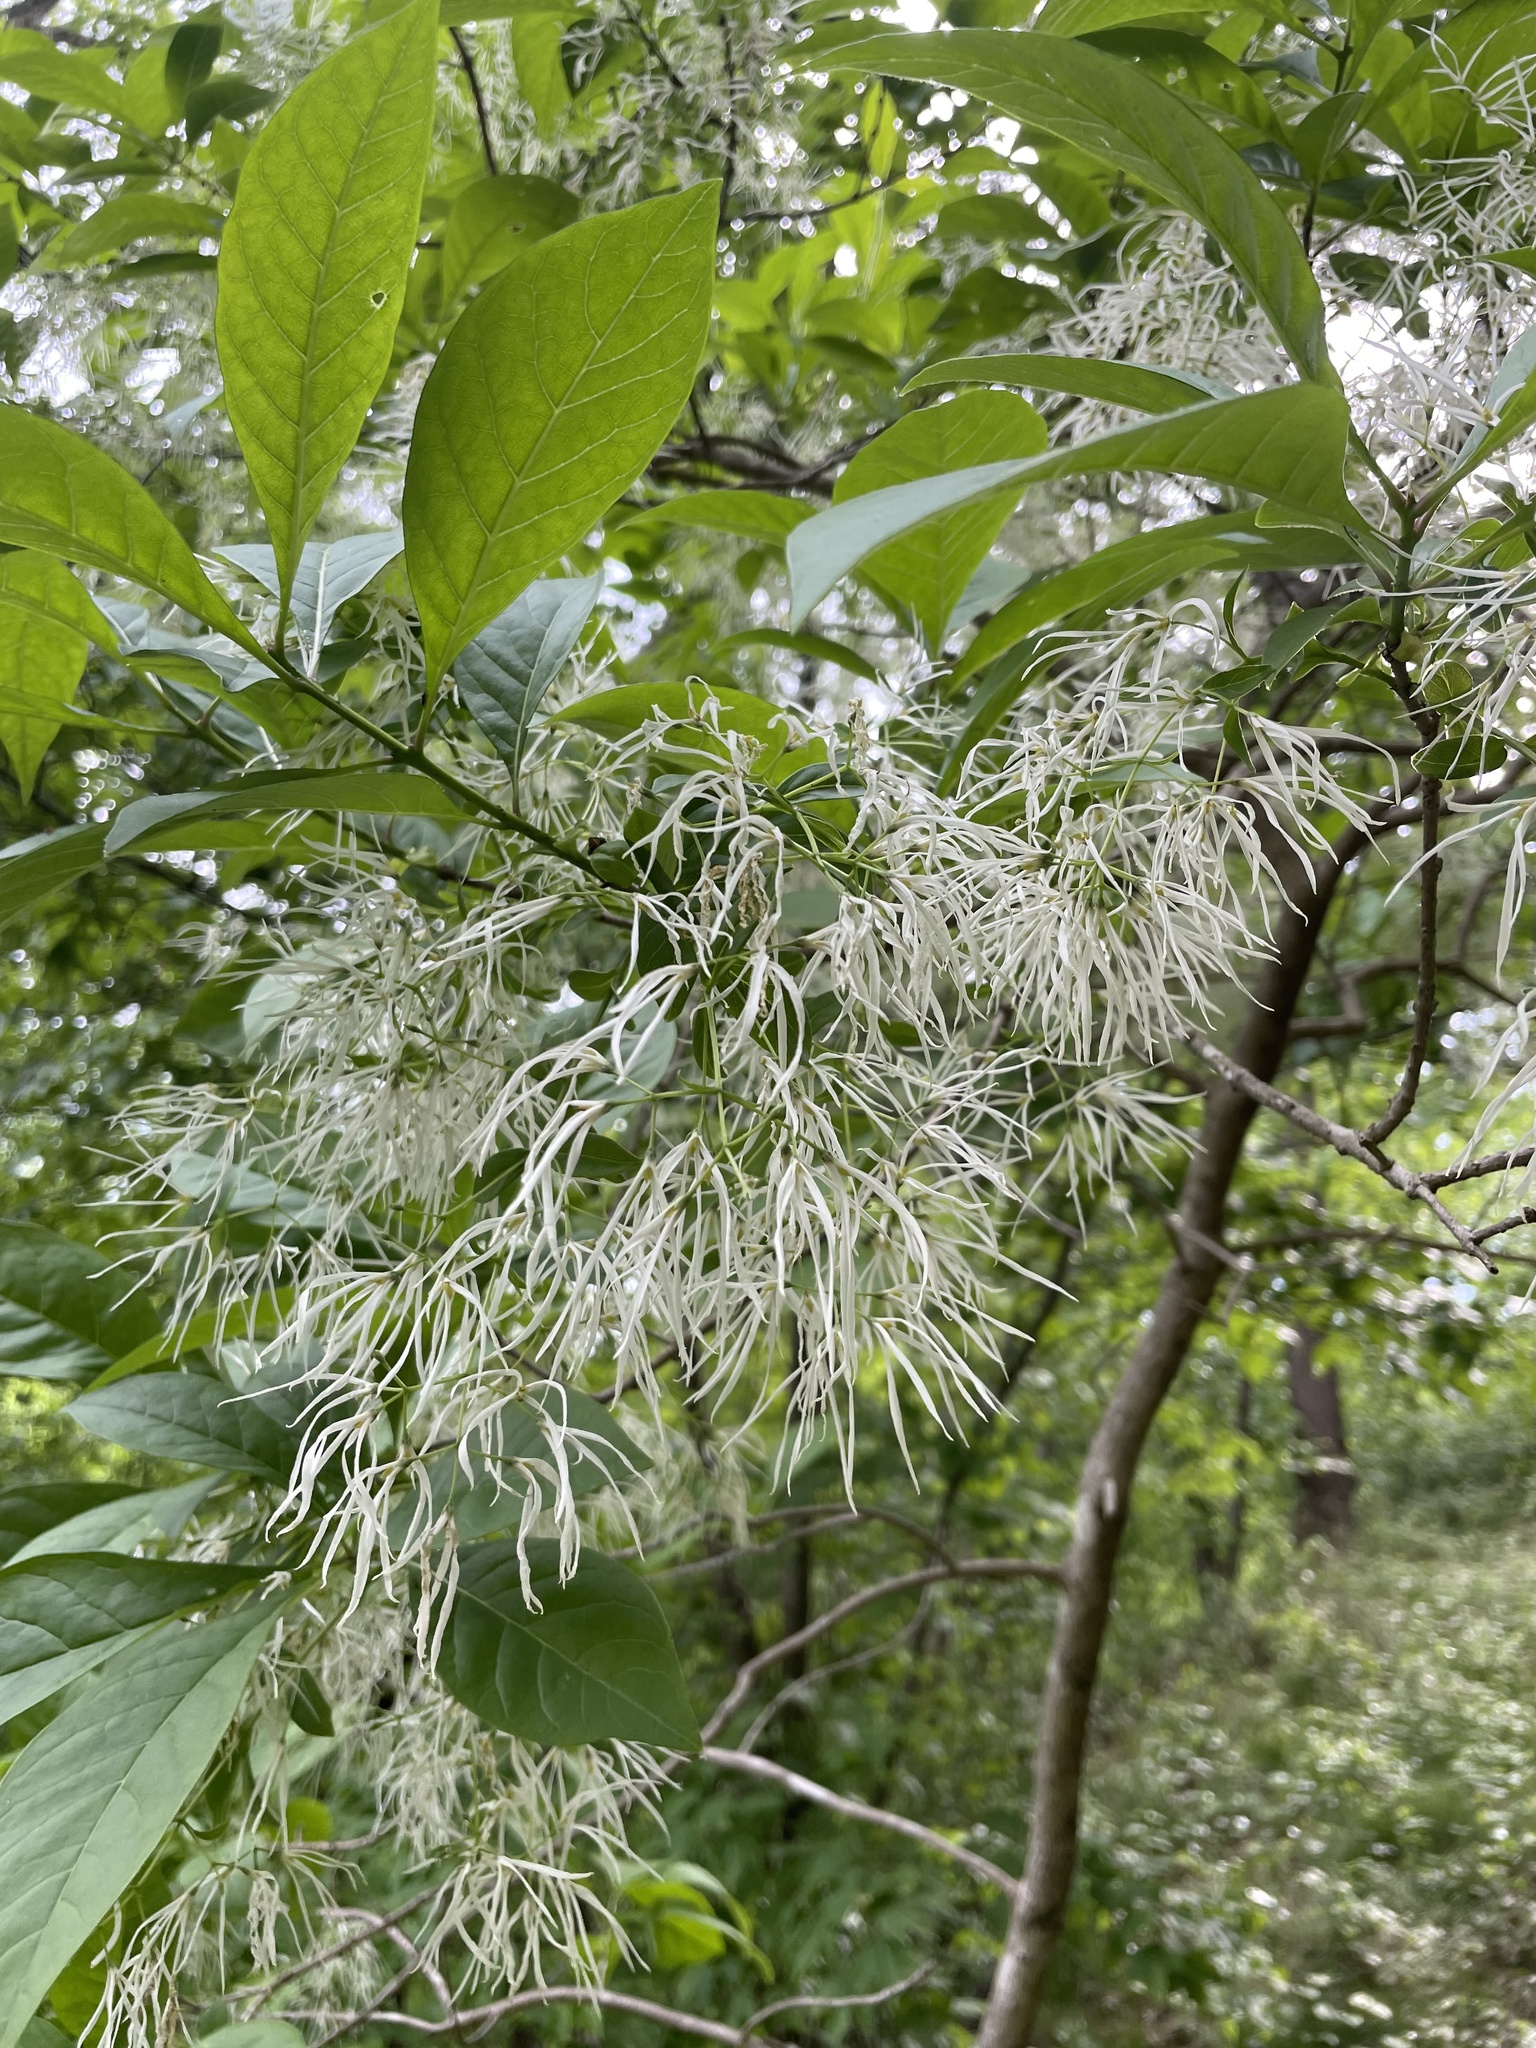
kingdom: Plantae
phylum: Tracheophyta
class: Magnoliopsida
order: Lamiales
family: Oleaceae
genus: Chionanthus
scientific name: Chionanthus virginicus
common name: American fringetree
